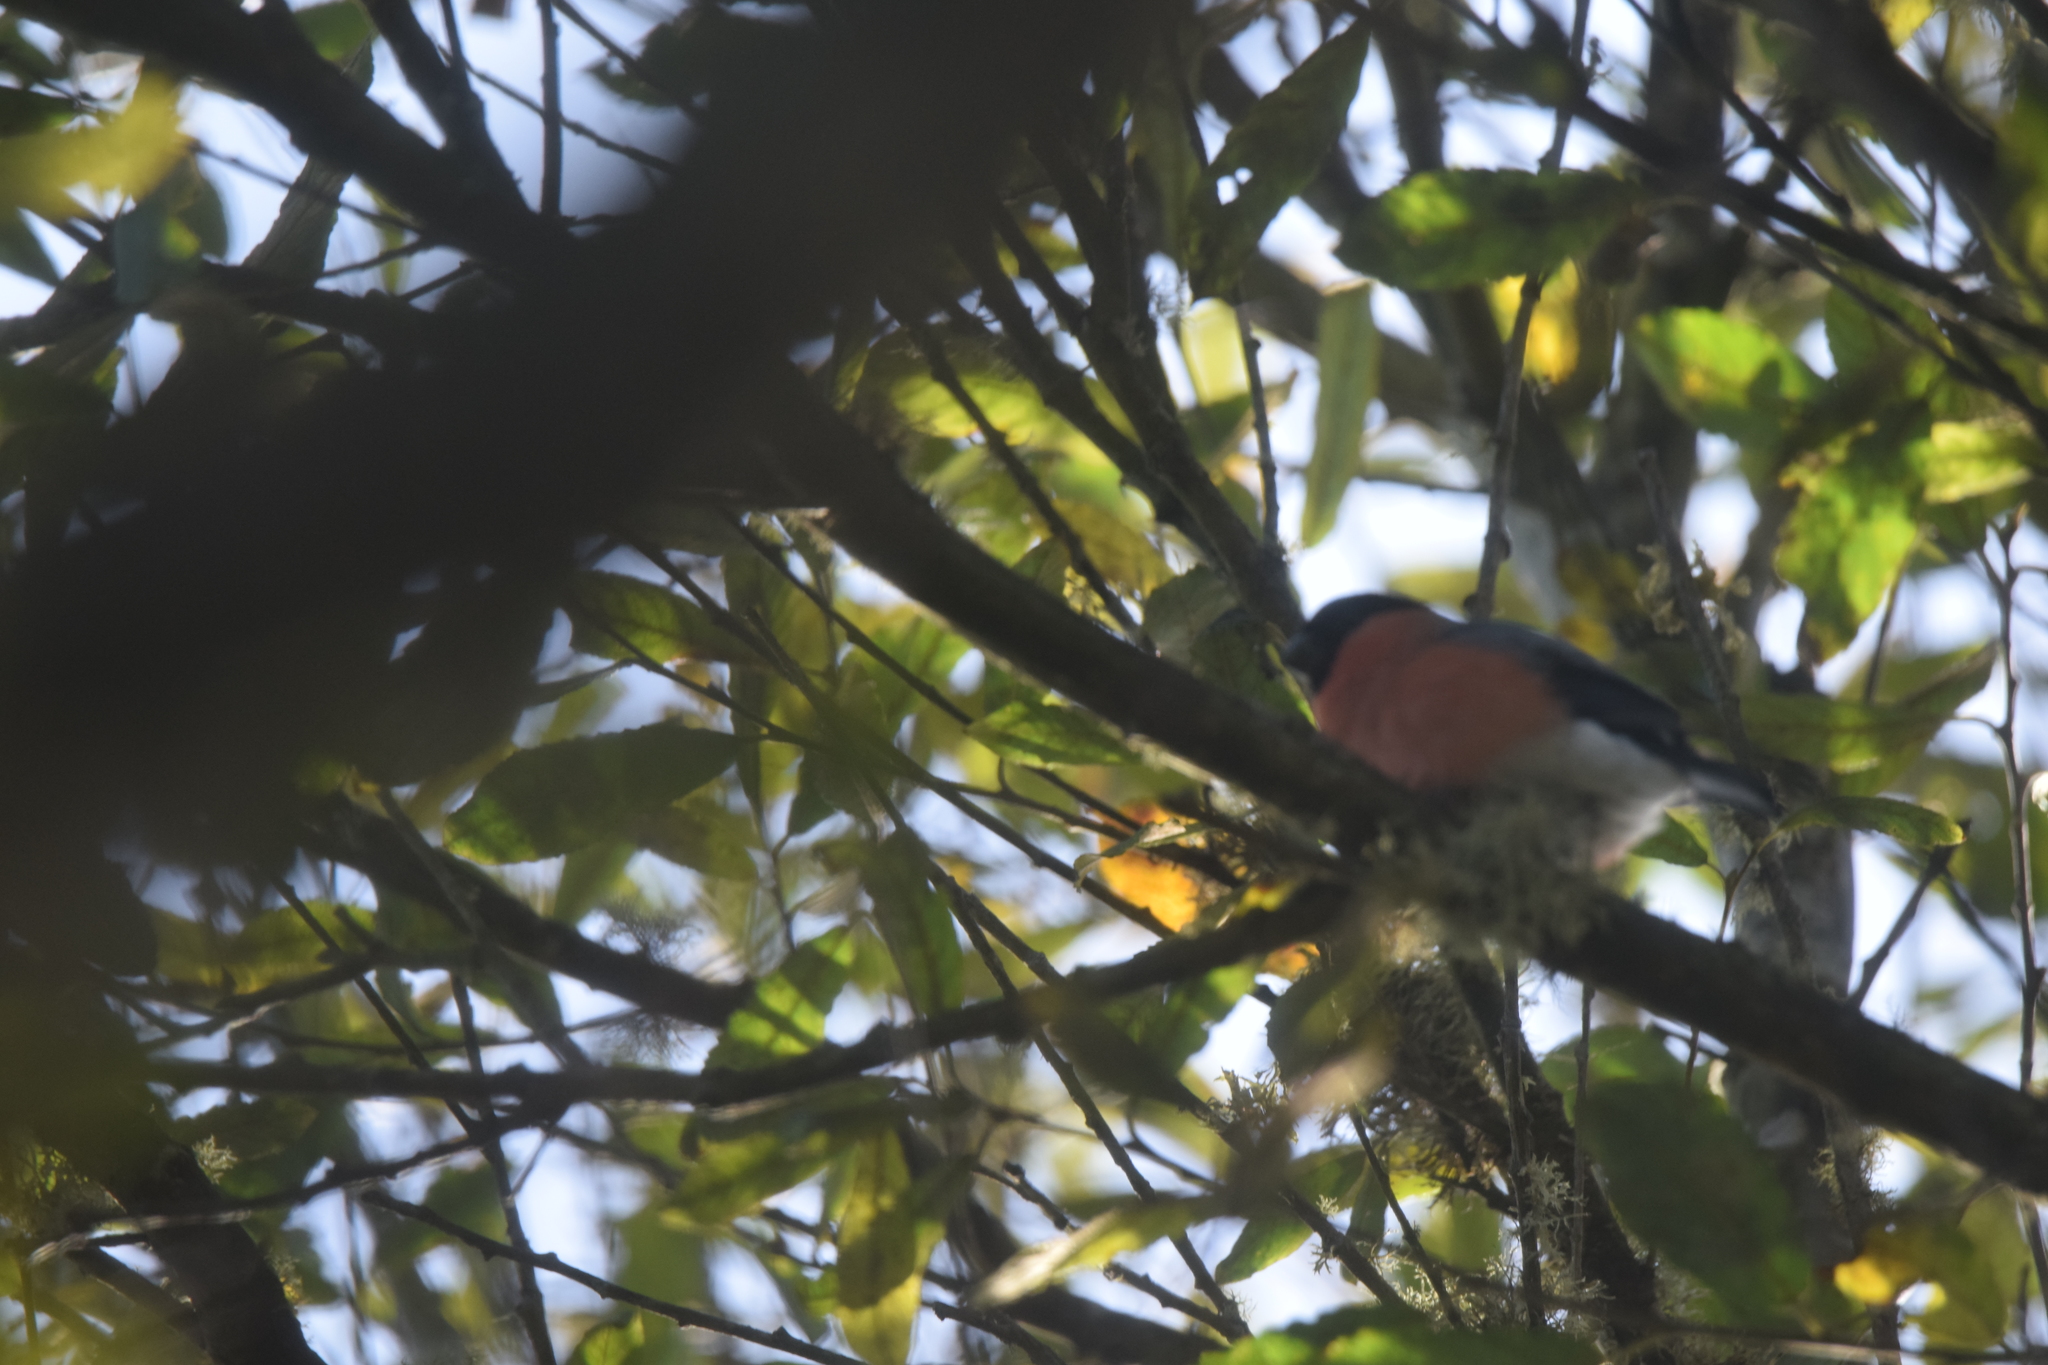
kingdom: Animalia
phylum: Chordata
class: Aves
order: Passeriformes
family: Fringillidae
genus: Pyrrhula
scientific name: Pyrrhula pyrrhula
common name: Eurasian bullfinch
